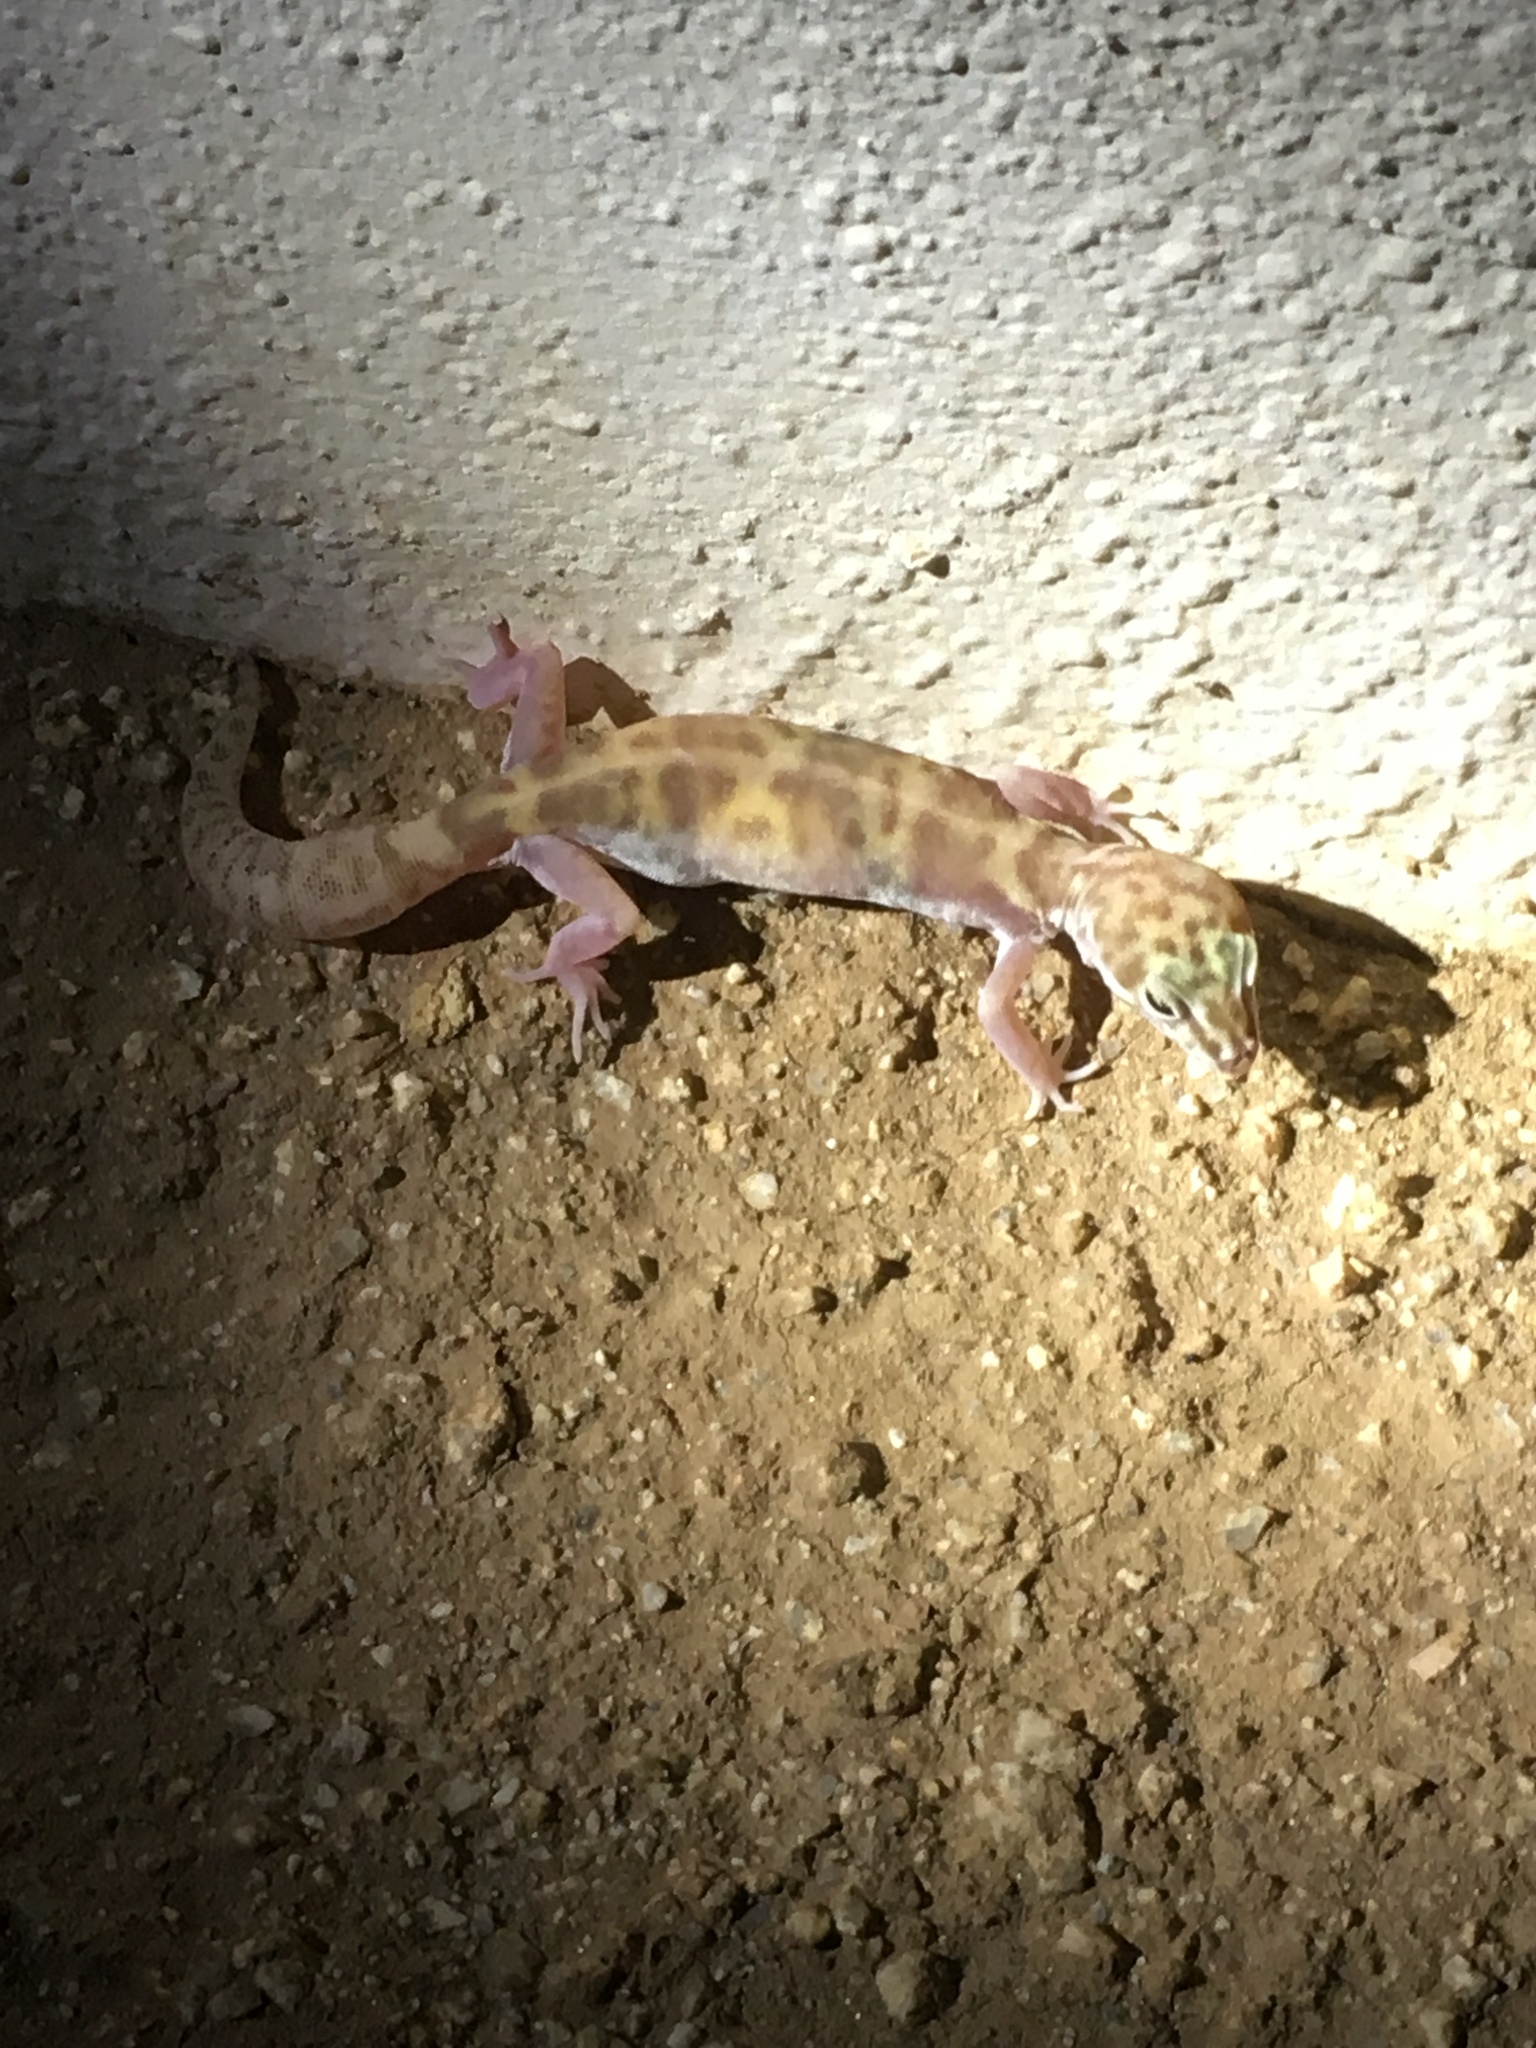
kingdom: Animalia
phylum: Chordata
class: Squamata
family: Eublepharidae
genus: Coleonyx
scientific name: Coleonyx variegatus
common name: Western banded gecko
